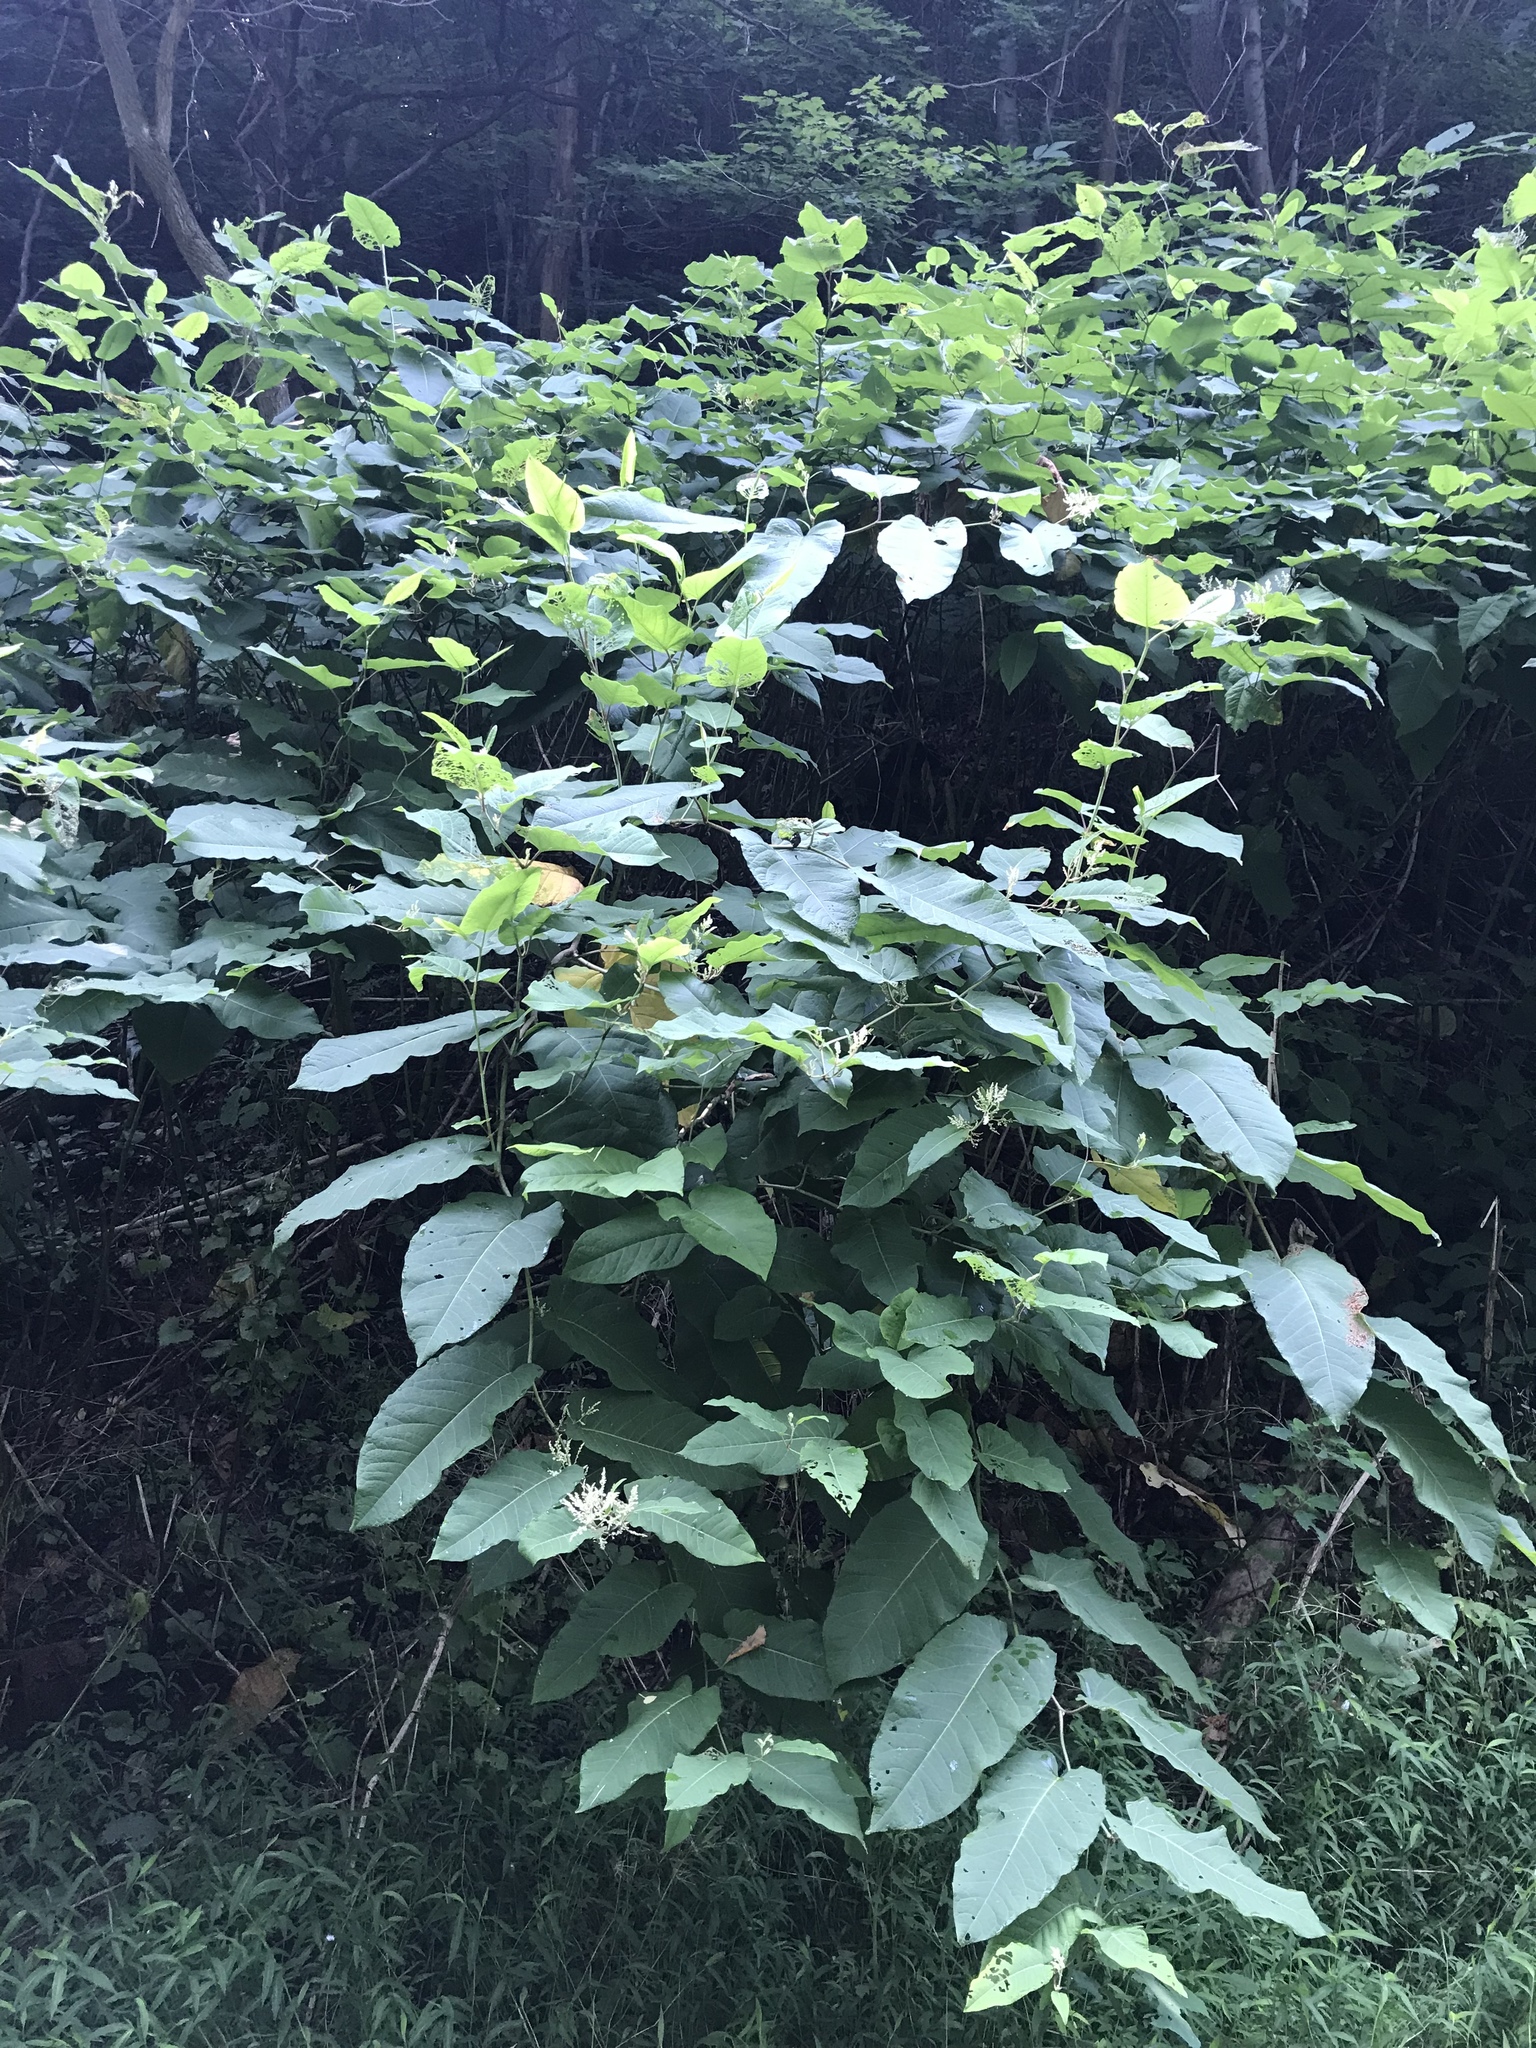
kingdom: Plantae
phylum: Tracheophyta
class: Magnoliopsida
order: Caryophyllales
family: Polygonaceae
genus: Reynoutria
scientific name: Reynoutria sachalinensis
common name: Giant knotweed
